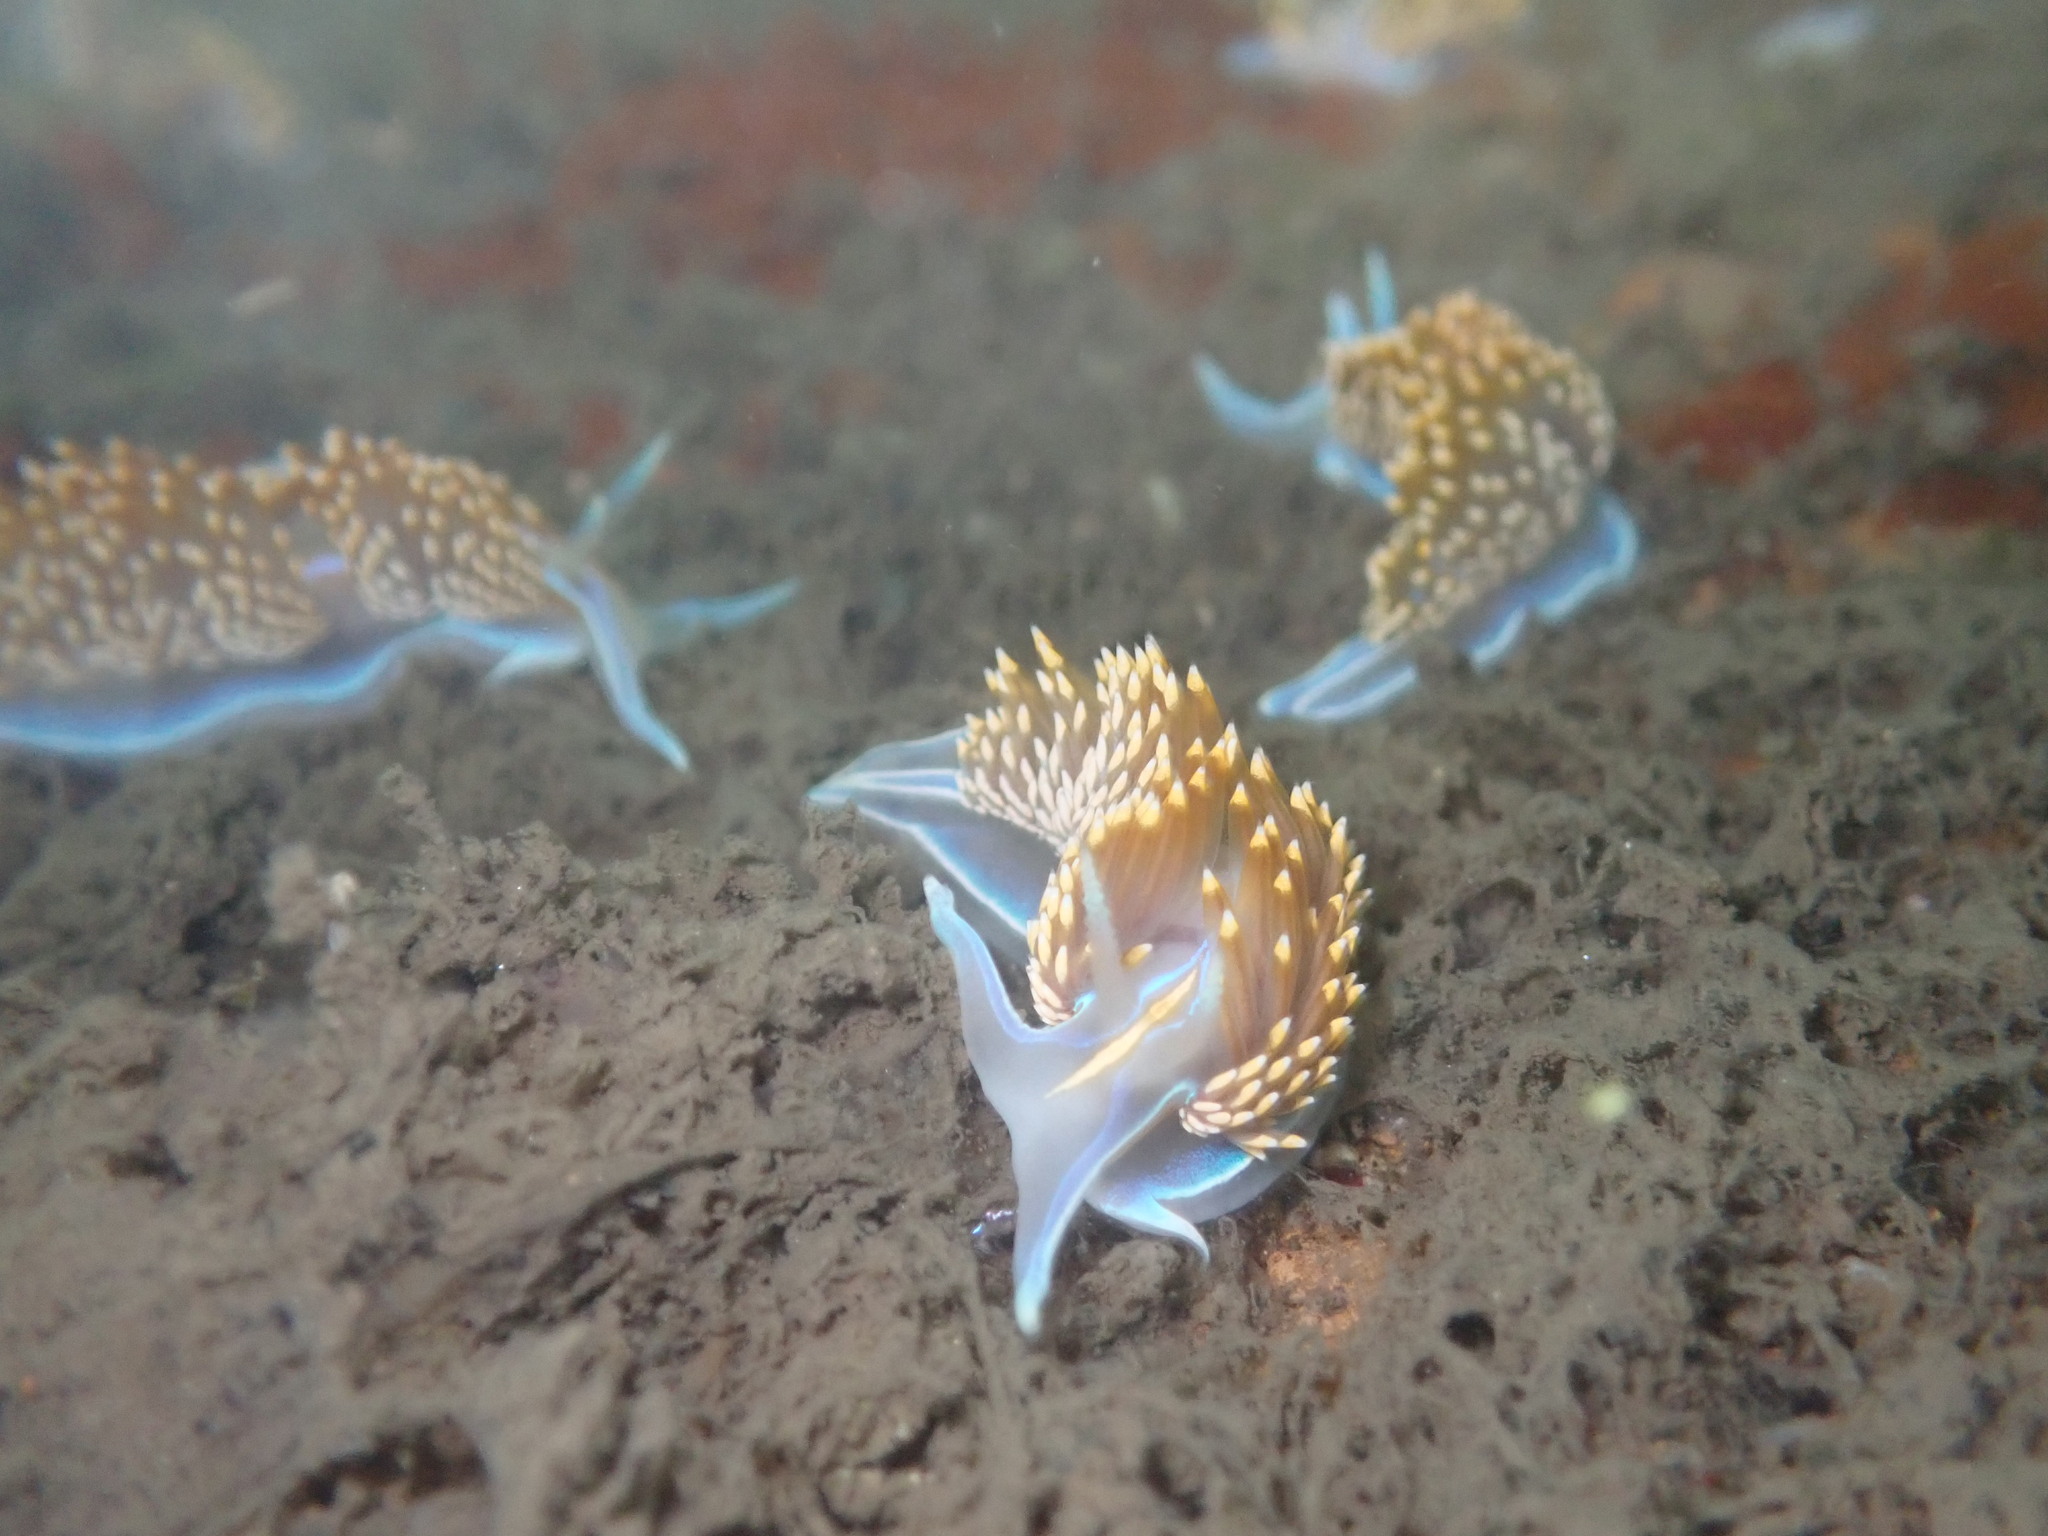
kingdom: Animalia
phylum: Mollusca
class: Gastropoda
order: Nudibranchia
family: Myrrhinidae
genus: Hermissenda
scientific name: Hermissenda opalescens
